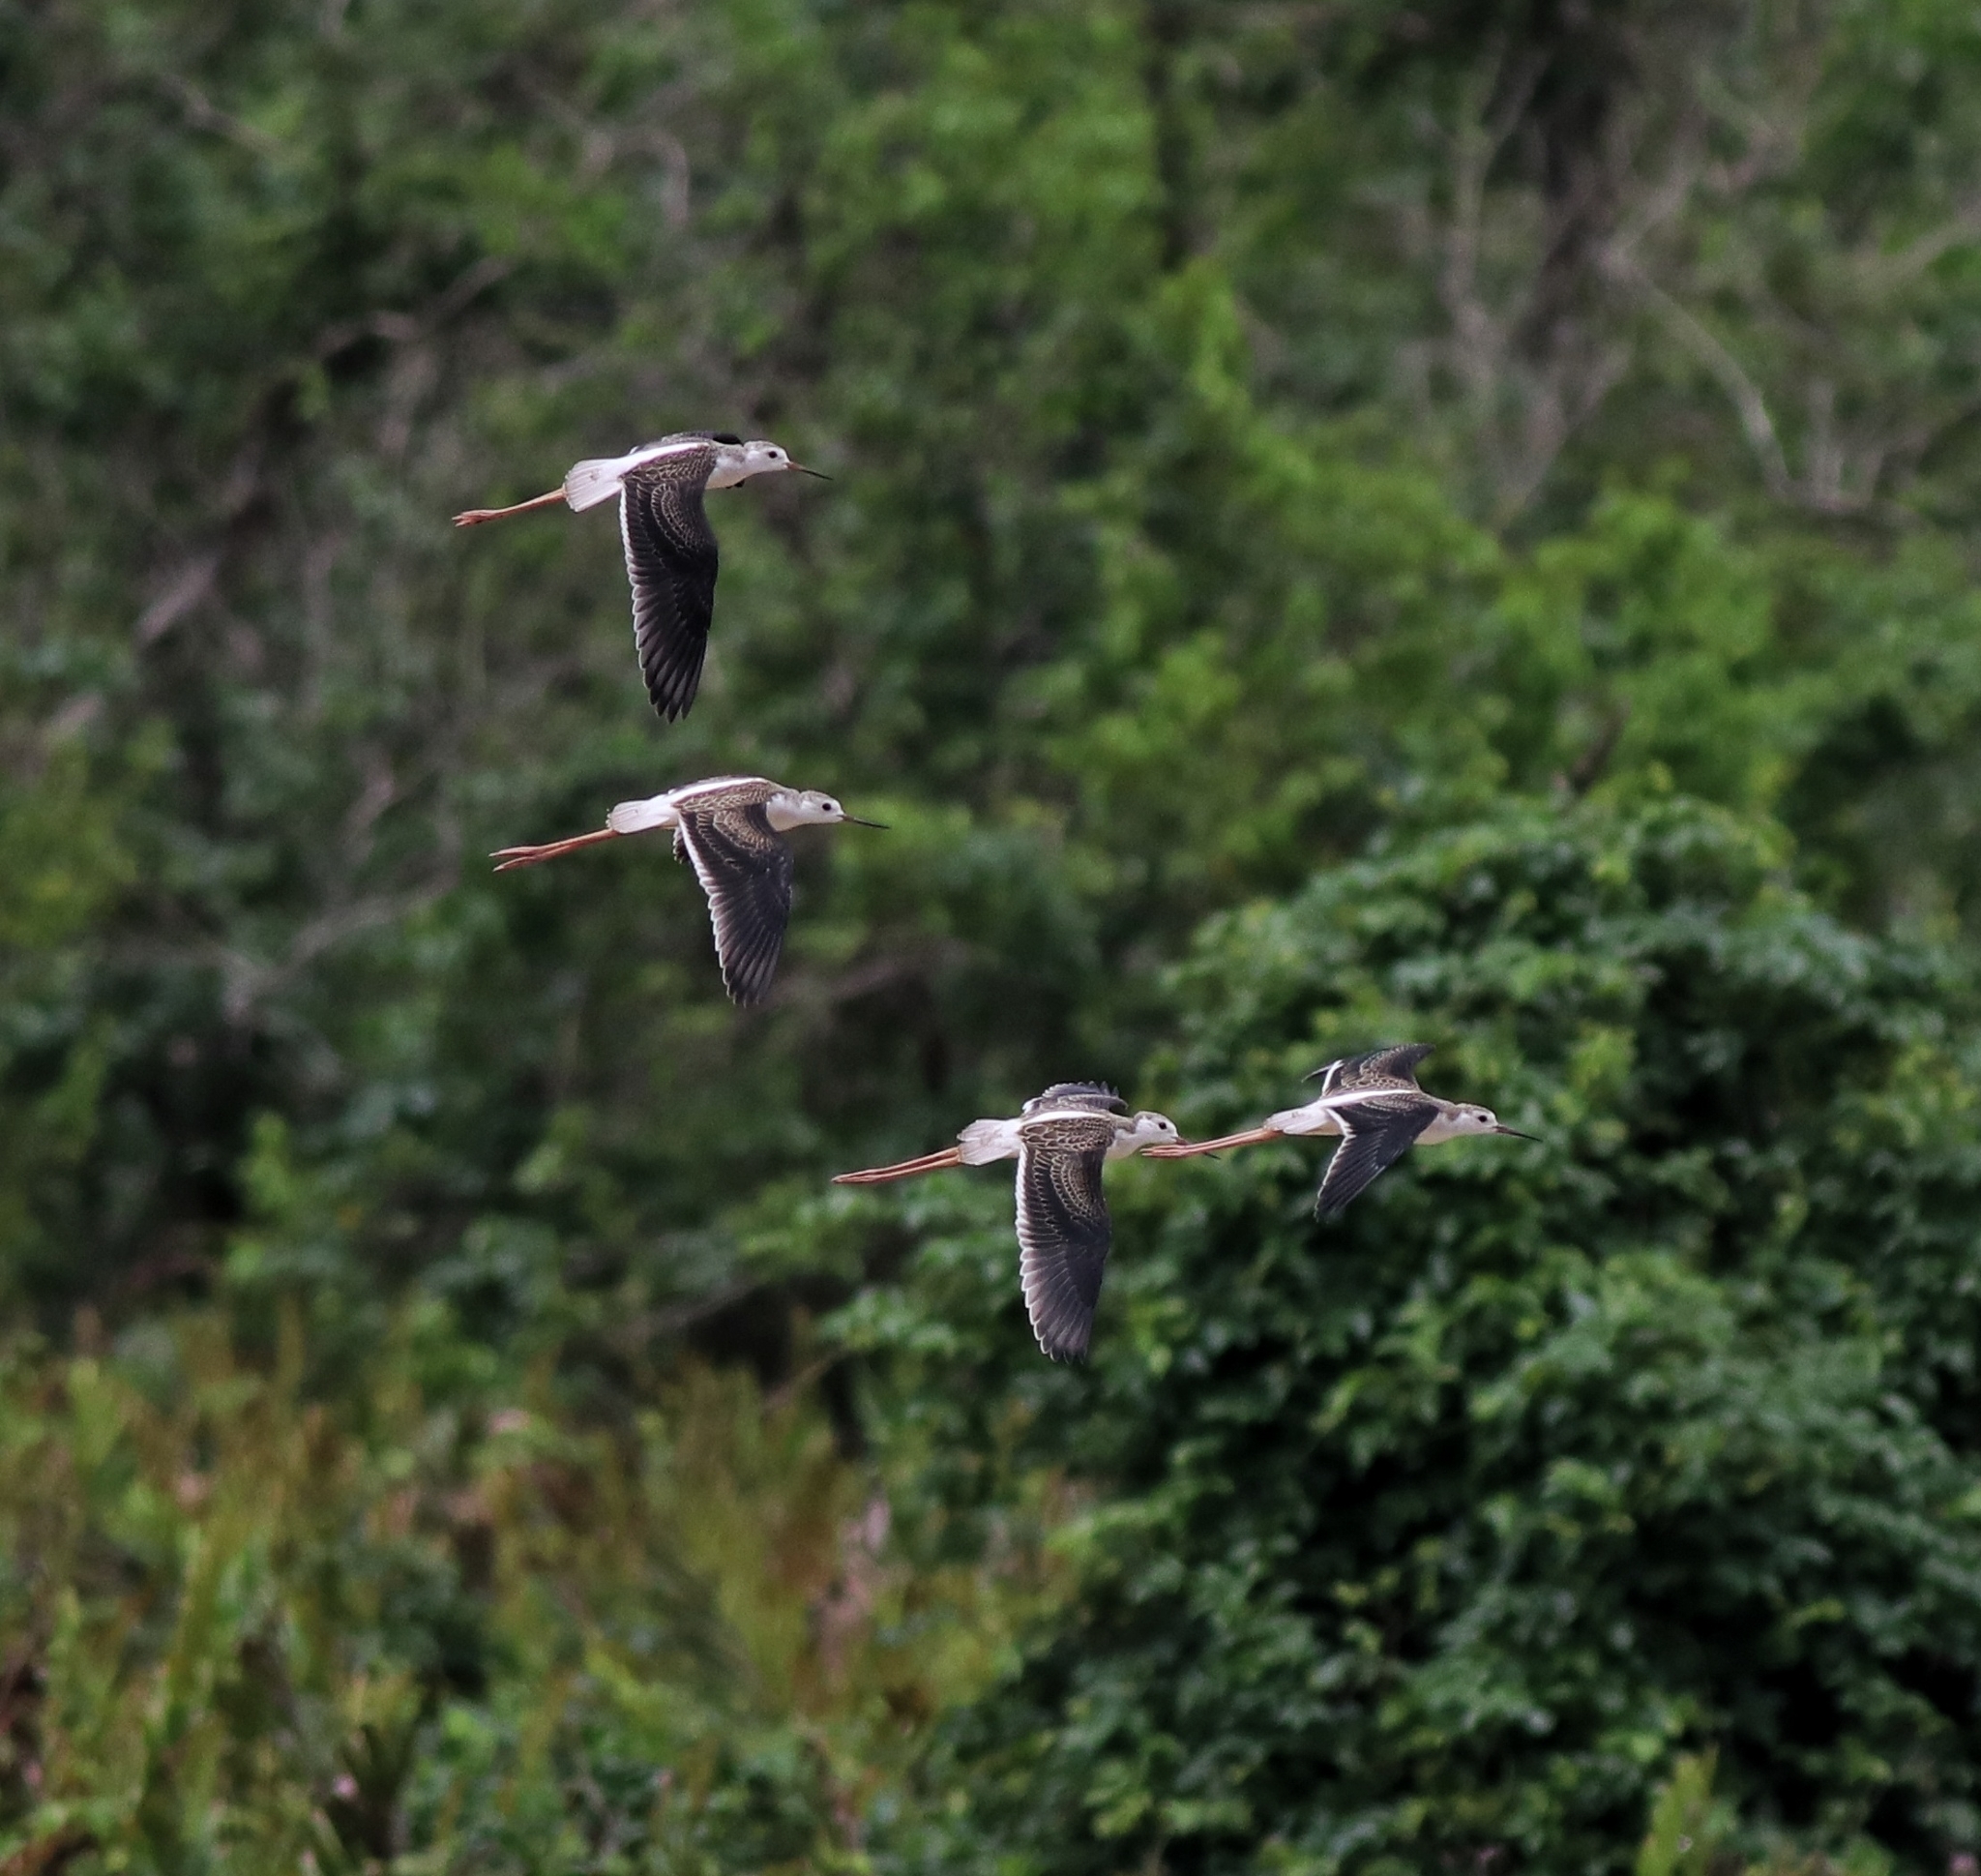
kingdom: Animalia
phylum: Chordata
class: Aves
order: Charadriiformes
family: Recurvirostridae
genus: Himantopus
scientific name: Himantopus himantopus
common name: Black-winged stilt
